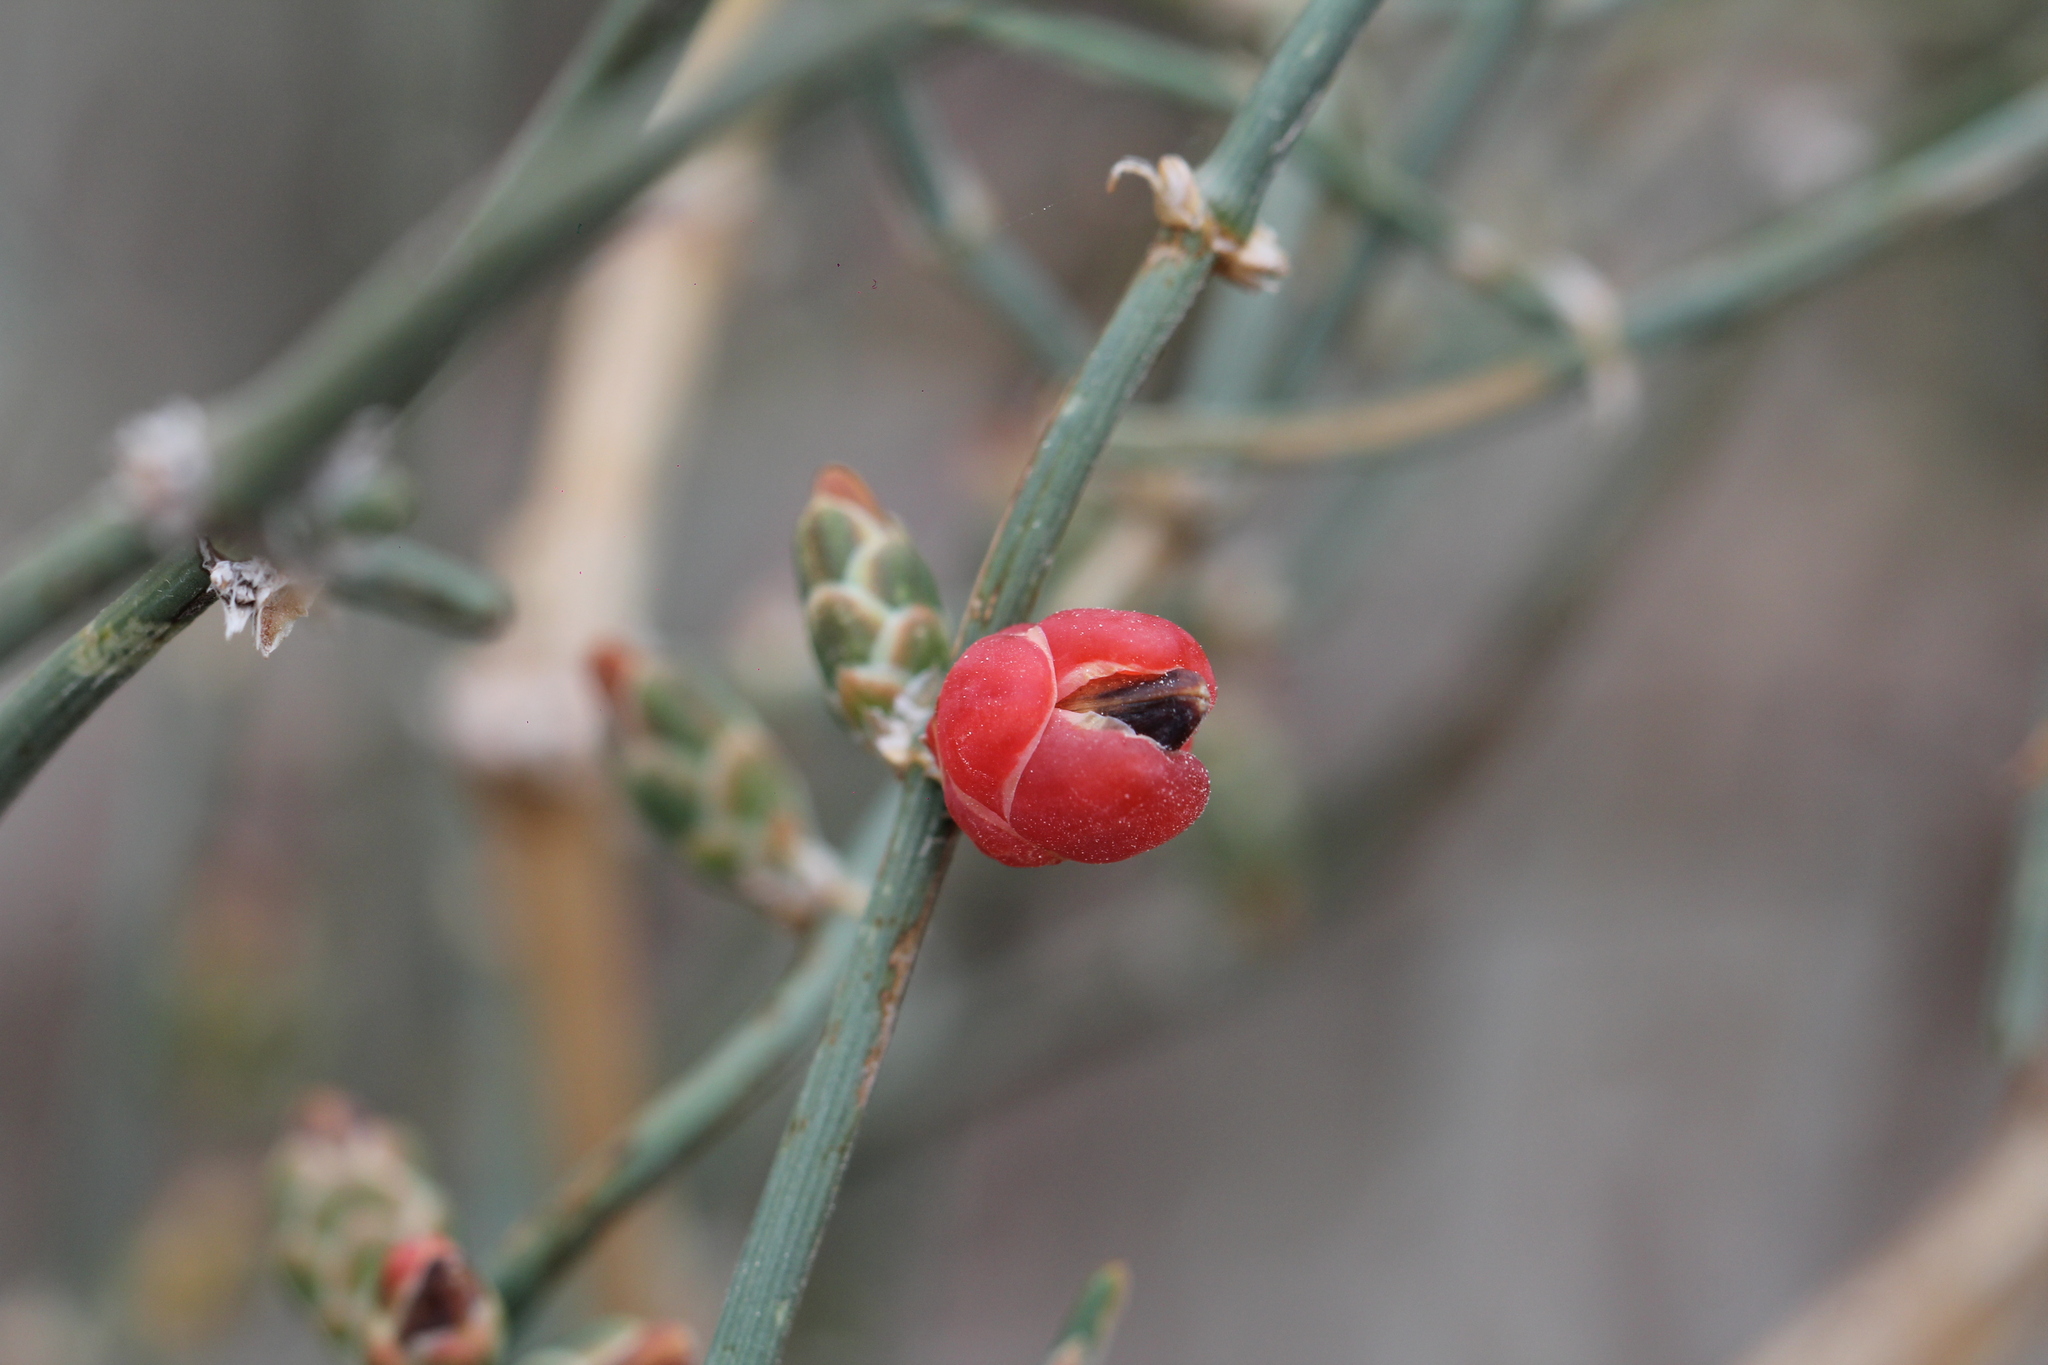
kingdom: Plantae
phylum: Tracheophyta
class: Gnetopsida
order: Ephedrales
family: Ephedraceae
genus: Ephedra
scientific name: Ephedra triandra
